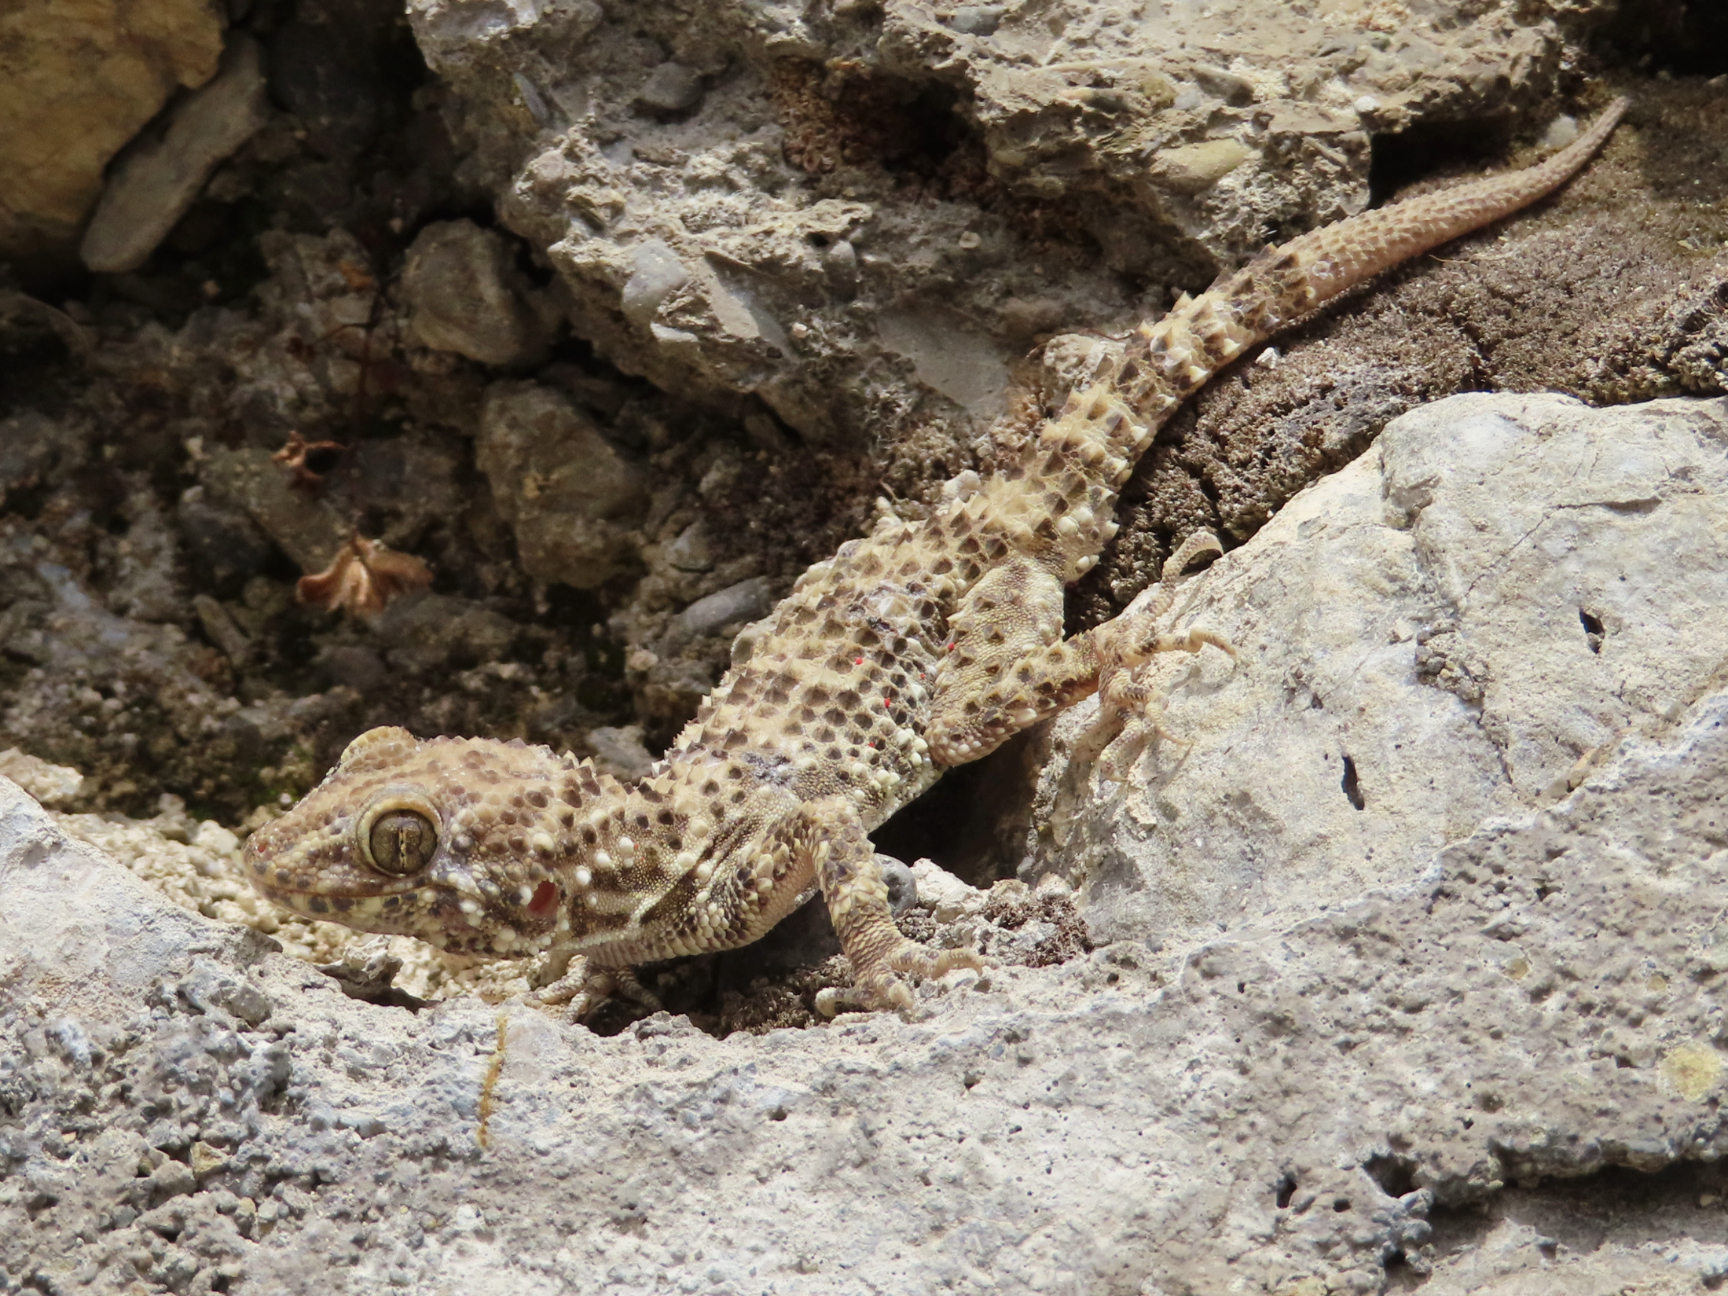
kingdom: Animalia
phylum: Chordata
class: Squamata
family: Gekkonidae
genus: Tenuidactylus
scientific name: Tenuidactylus caspius
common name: Caspian bent-toed gecko
